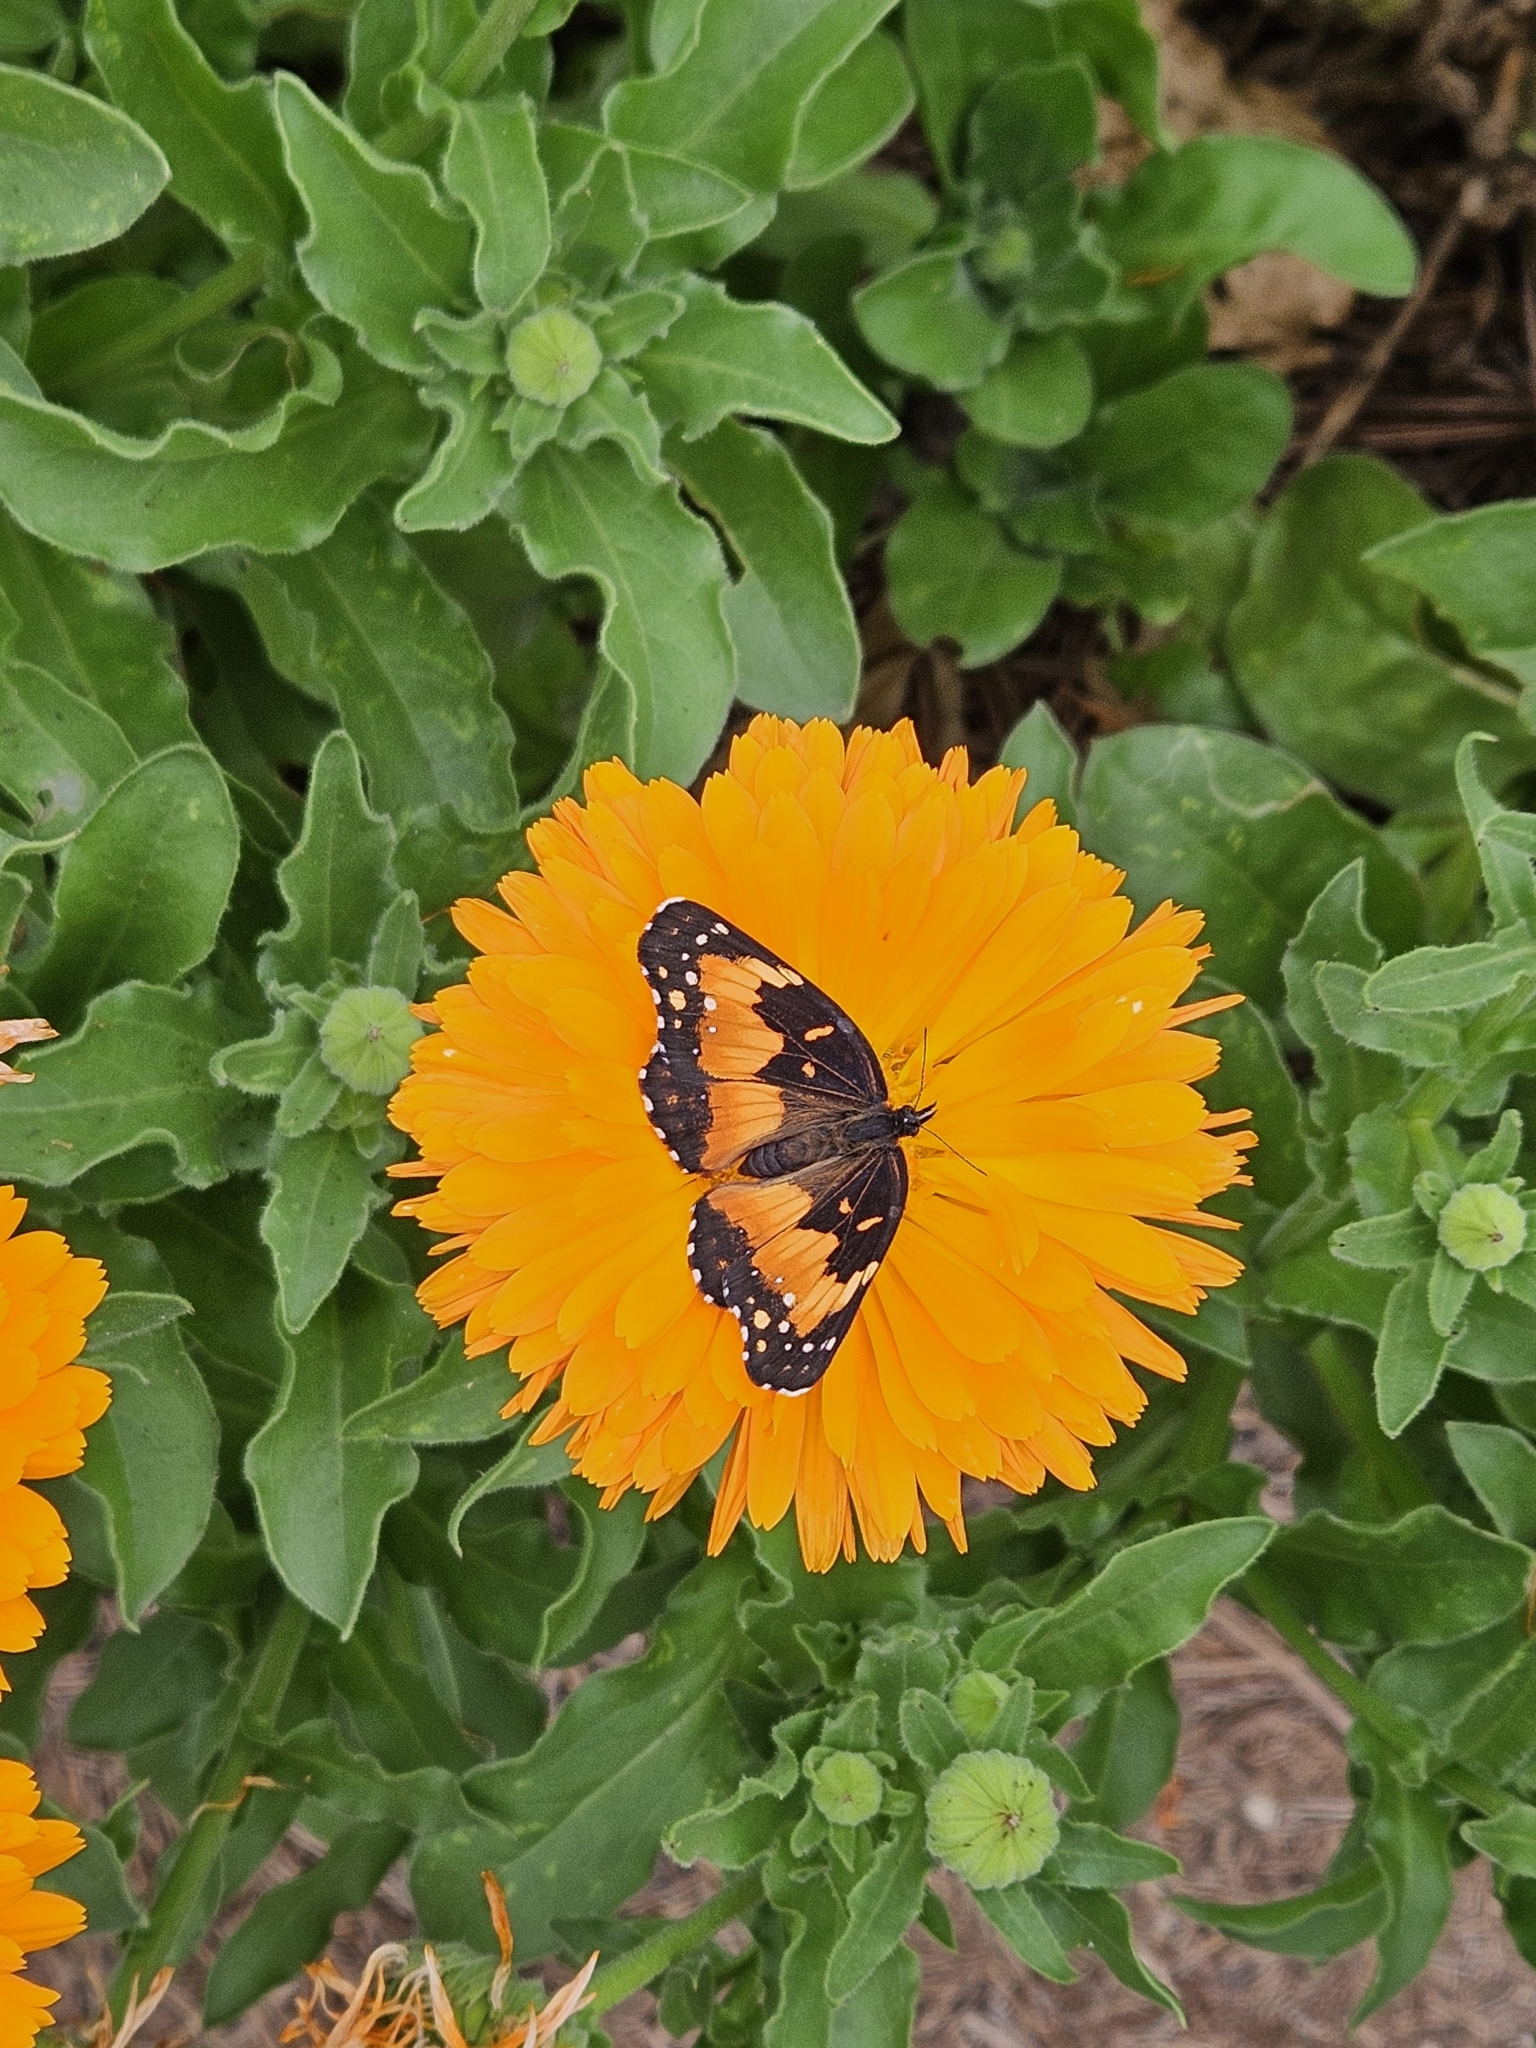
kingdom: Animalia
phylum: Arthropoda
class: Insecta
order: Lepidoptera
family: Nymphalidae
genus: Chlosyne
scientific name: Chlosyne lacinia
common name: Bordered patch
